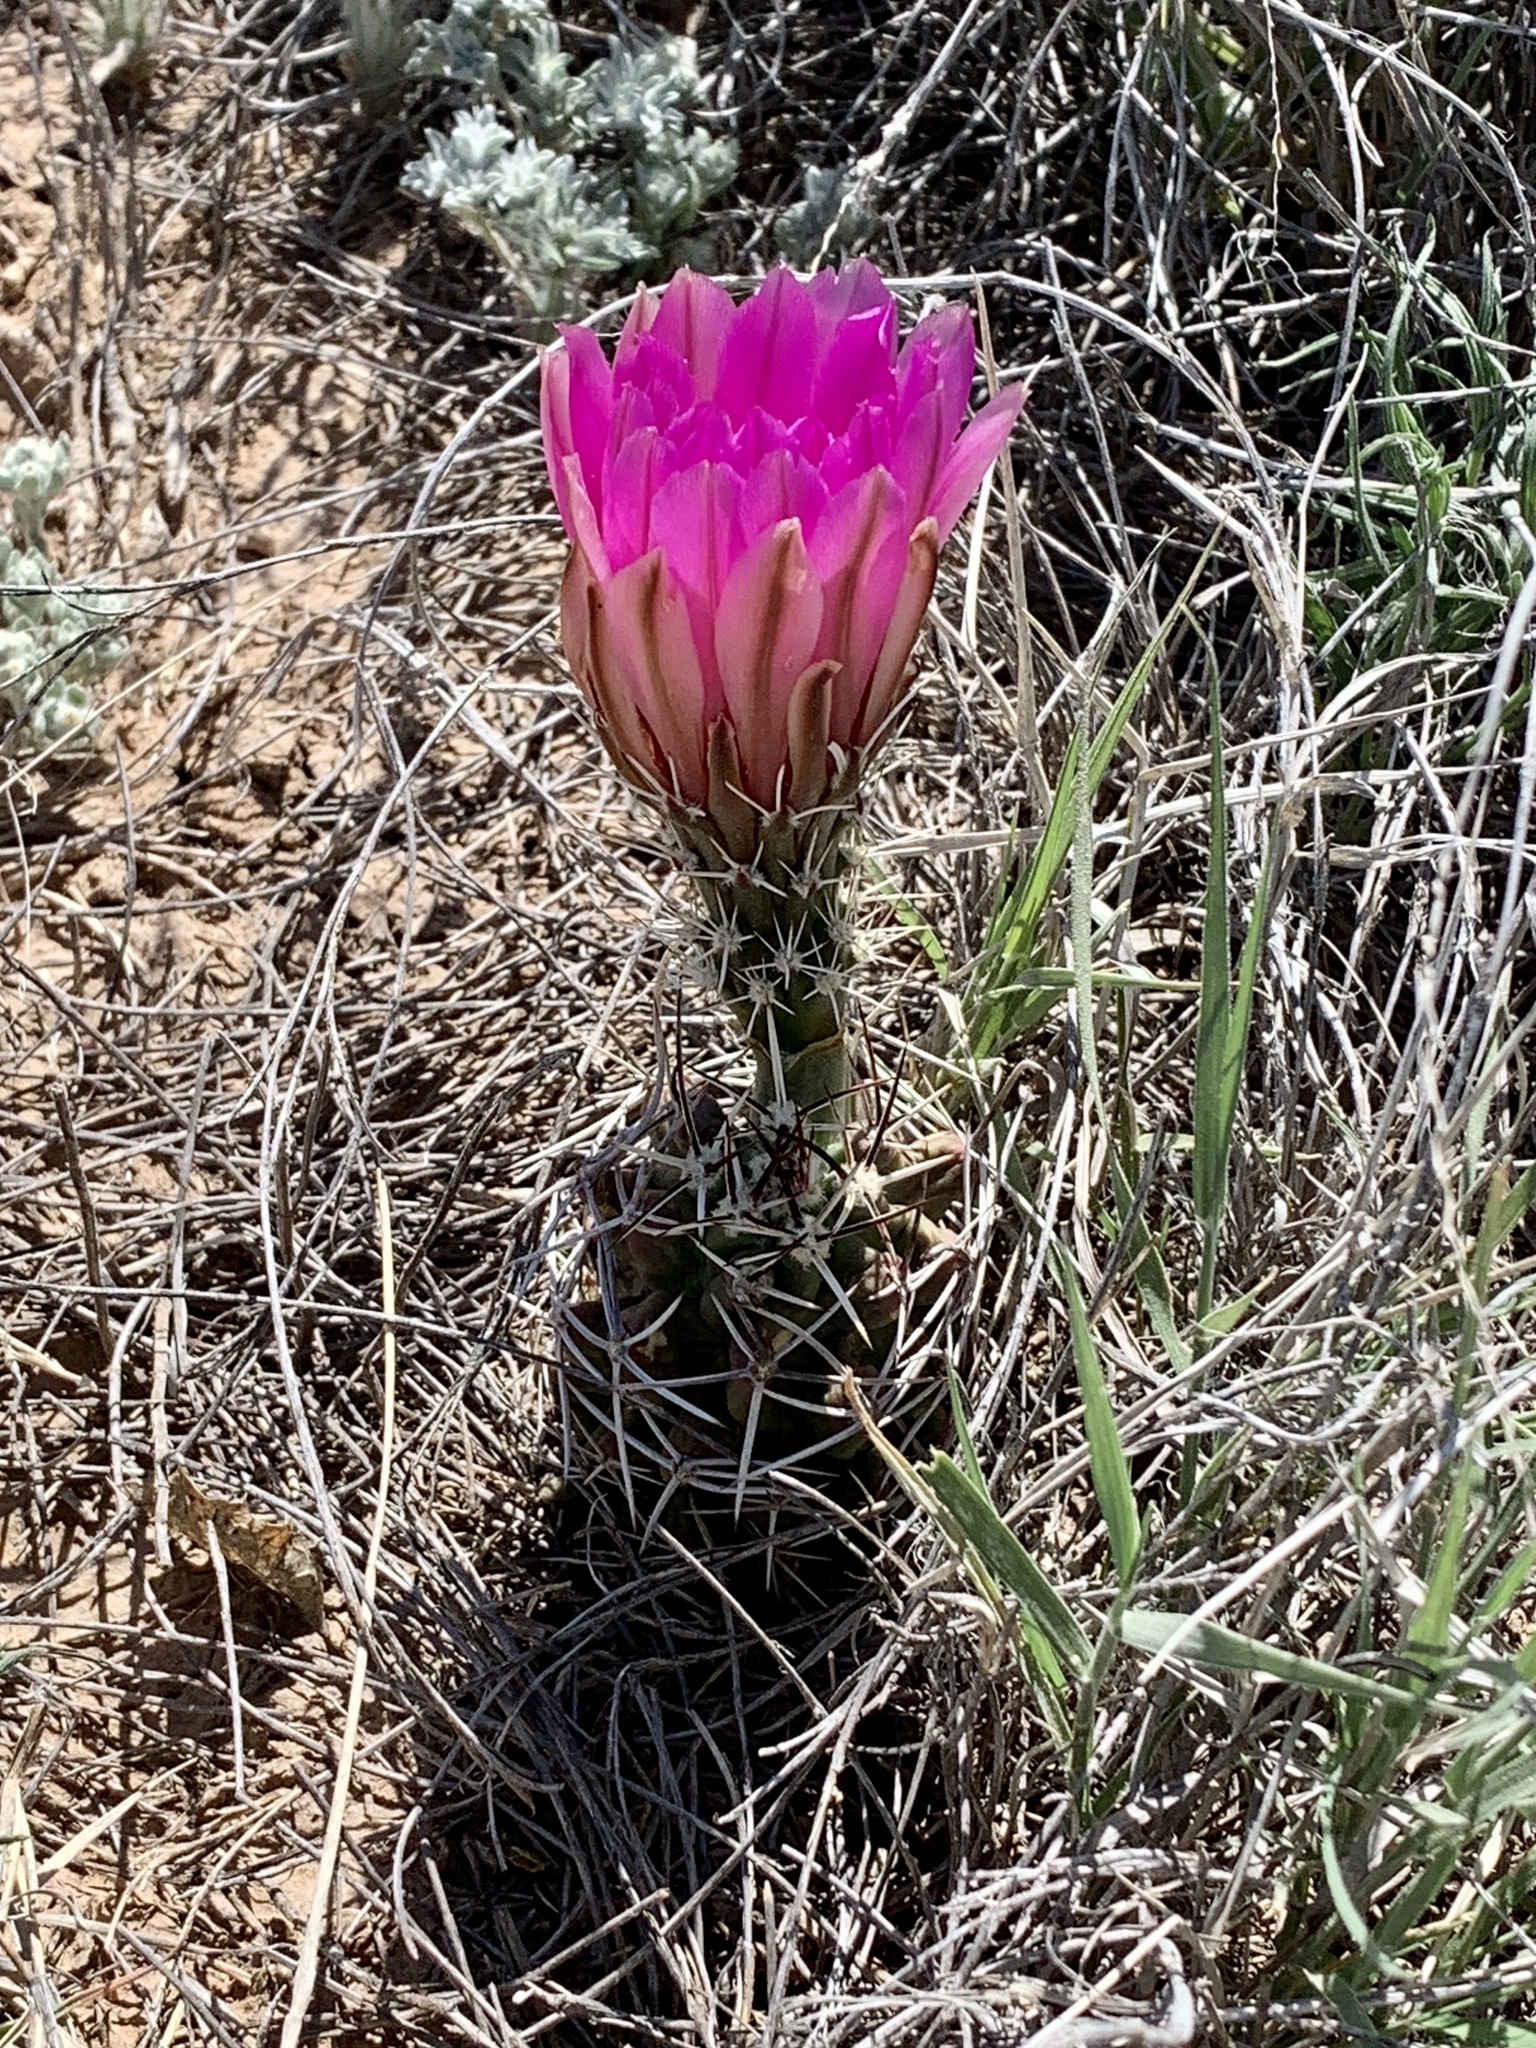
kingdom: Plantae
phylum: Tracheophyta
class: Magnoliopsida
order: Caryophyllales
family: Cactaceae
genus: Echinocereus
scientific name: Echinocereus fendleri
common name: Fendler's hedgehog cactus
